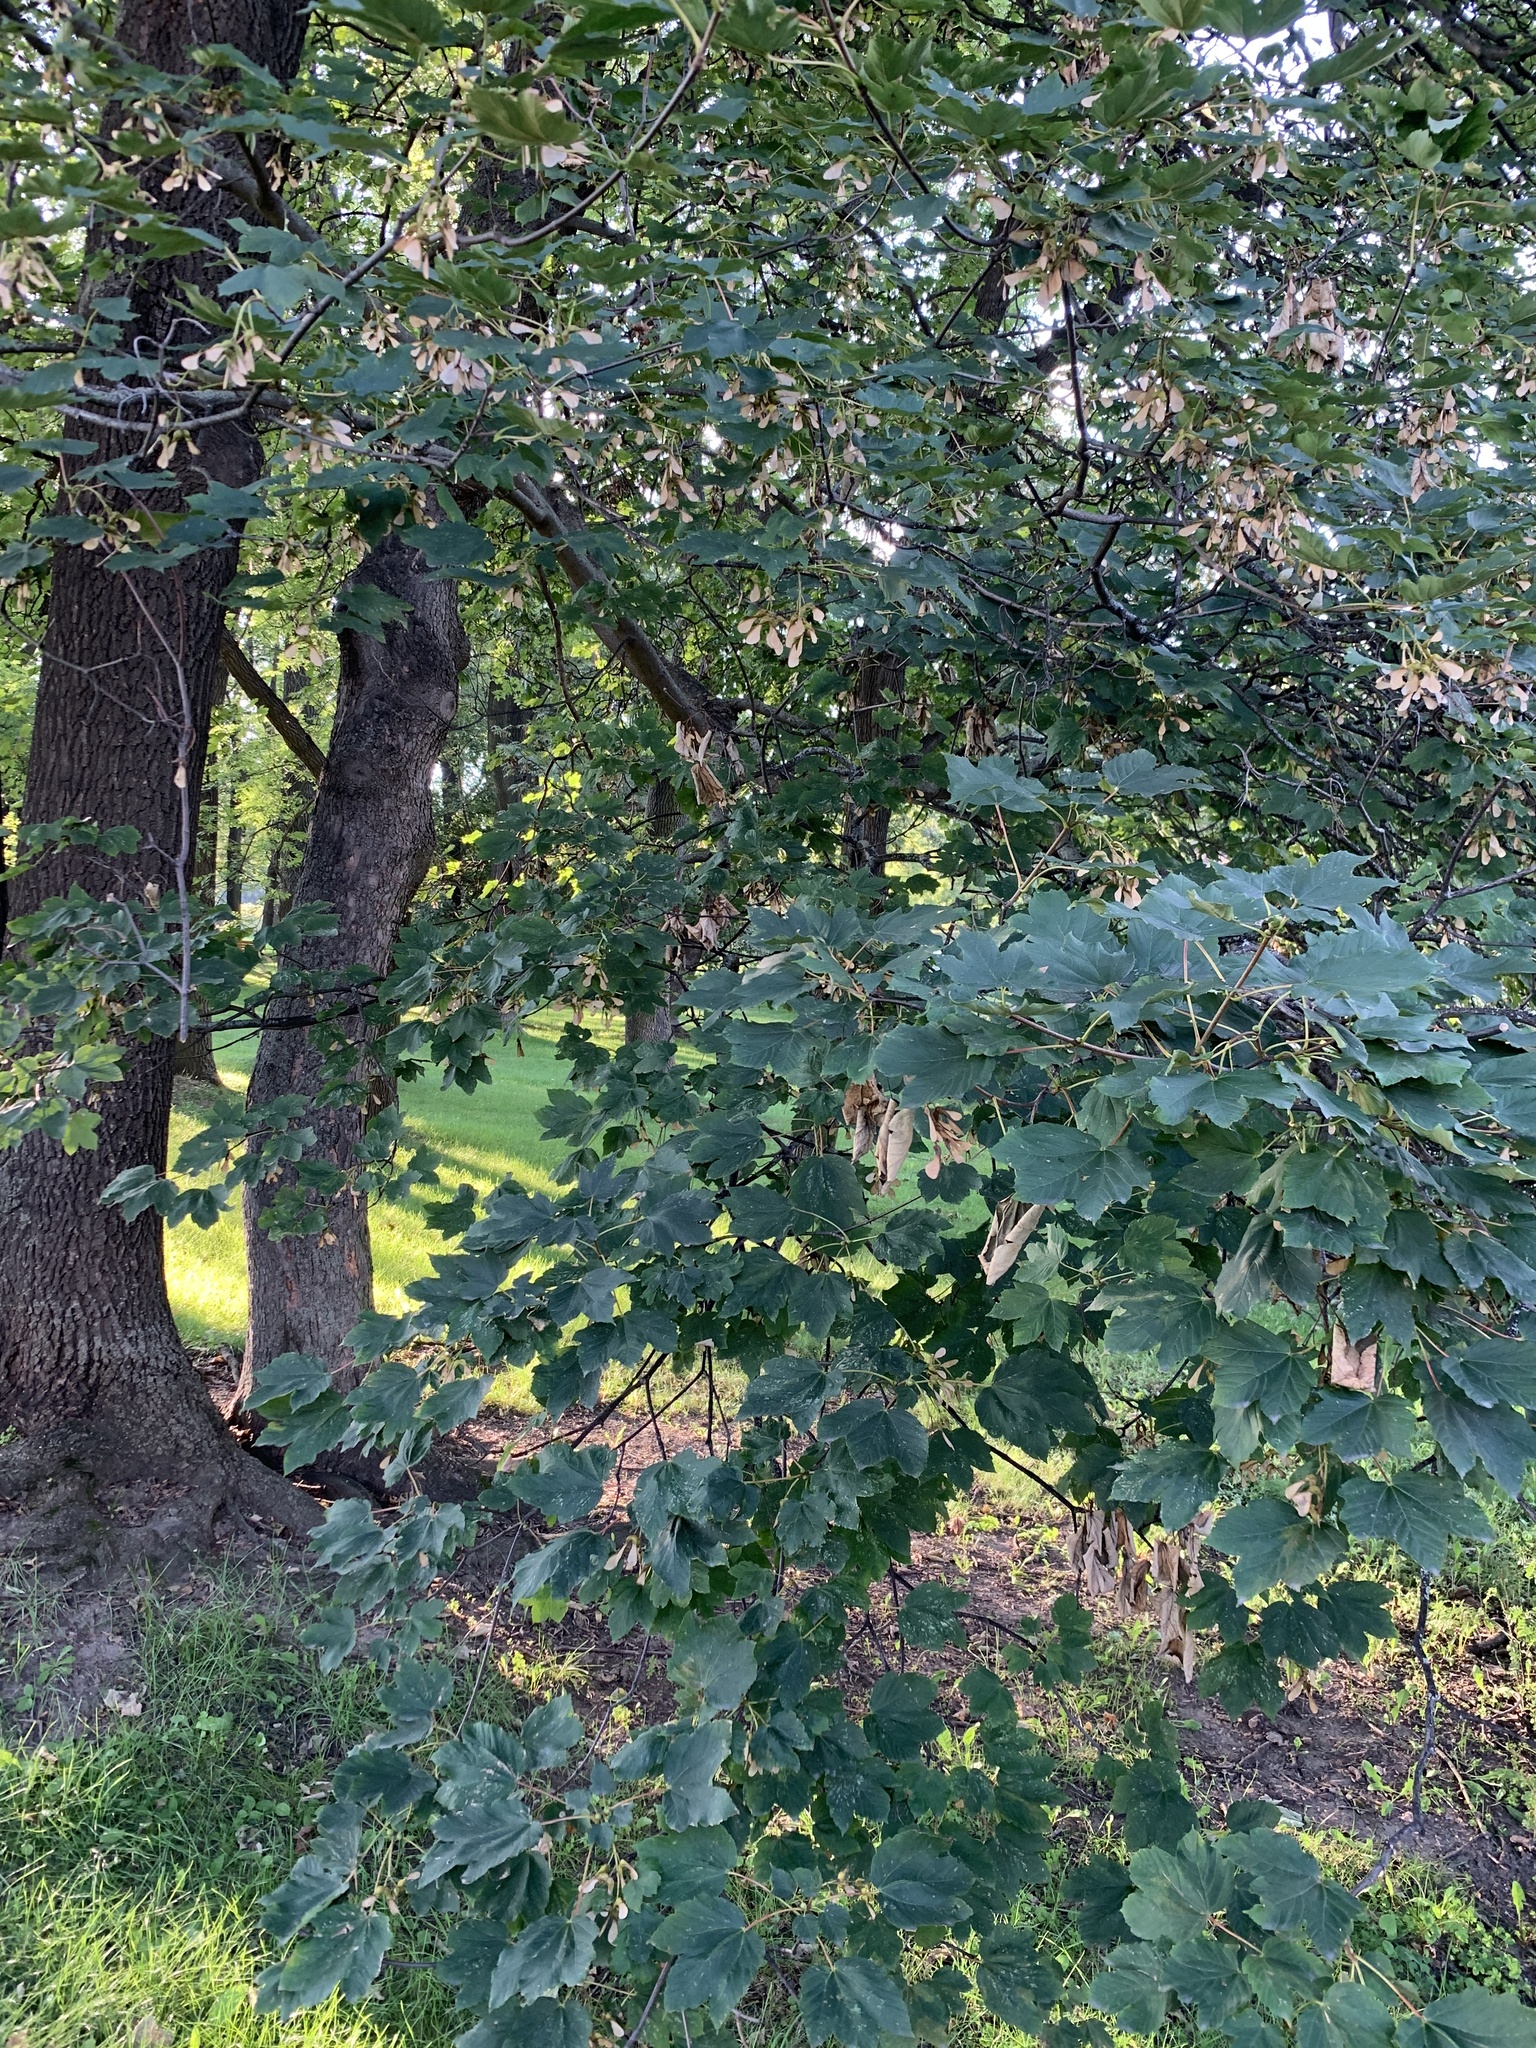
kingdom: Plantae
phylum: Tracheophyta
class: Magnoliopsida
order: Sapindales
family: Sapindaceae
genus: Acer
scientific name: Acer platanoides
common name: Norway maple
